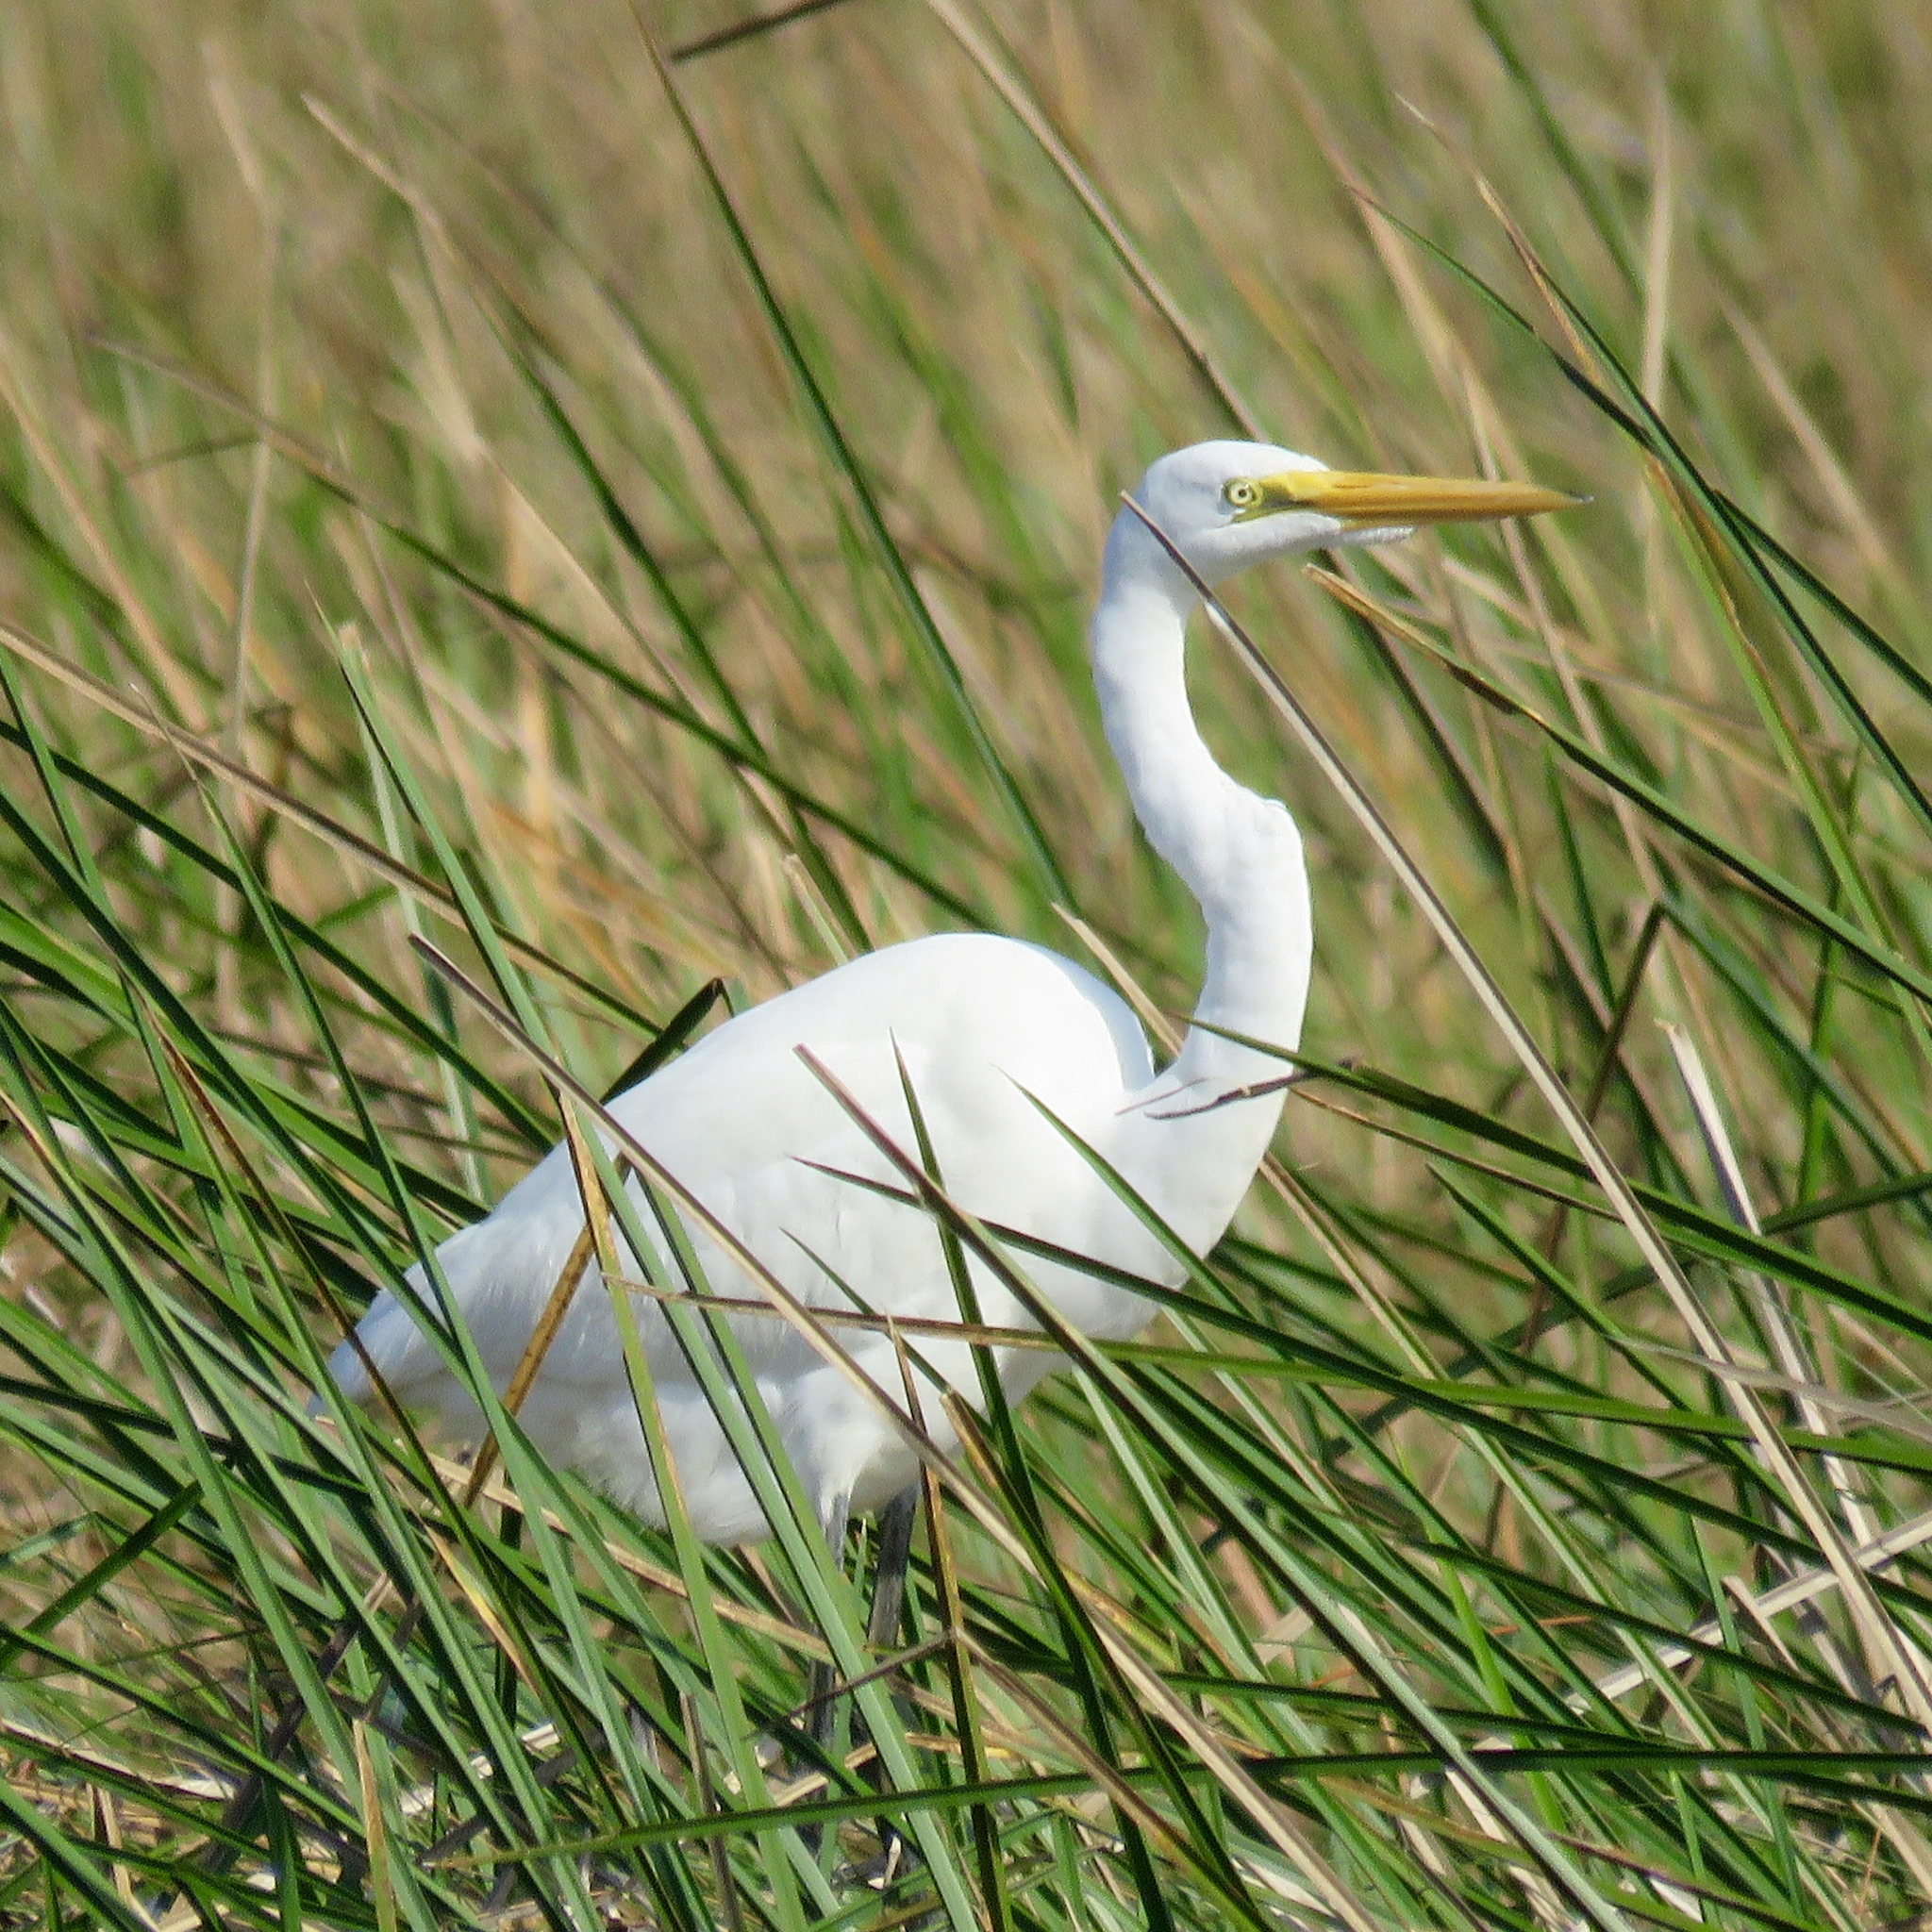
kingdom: Animalia
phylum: Chordata
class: Aves
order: Pelecaniformes
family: Ardeidae
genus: Ardea
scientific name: Ardea alba
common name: Great egret
